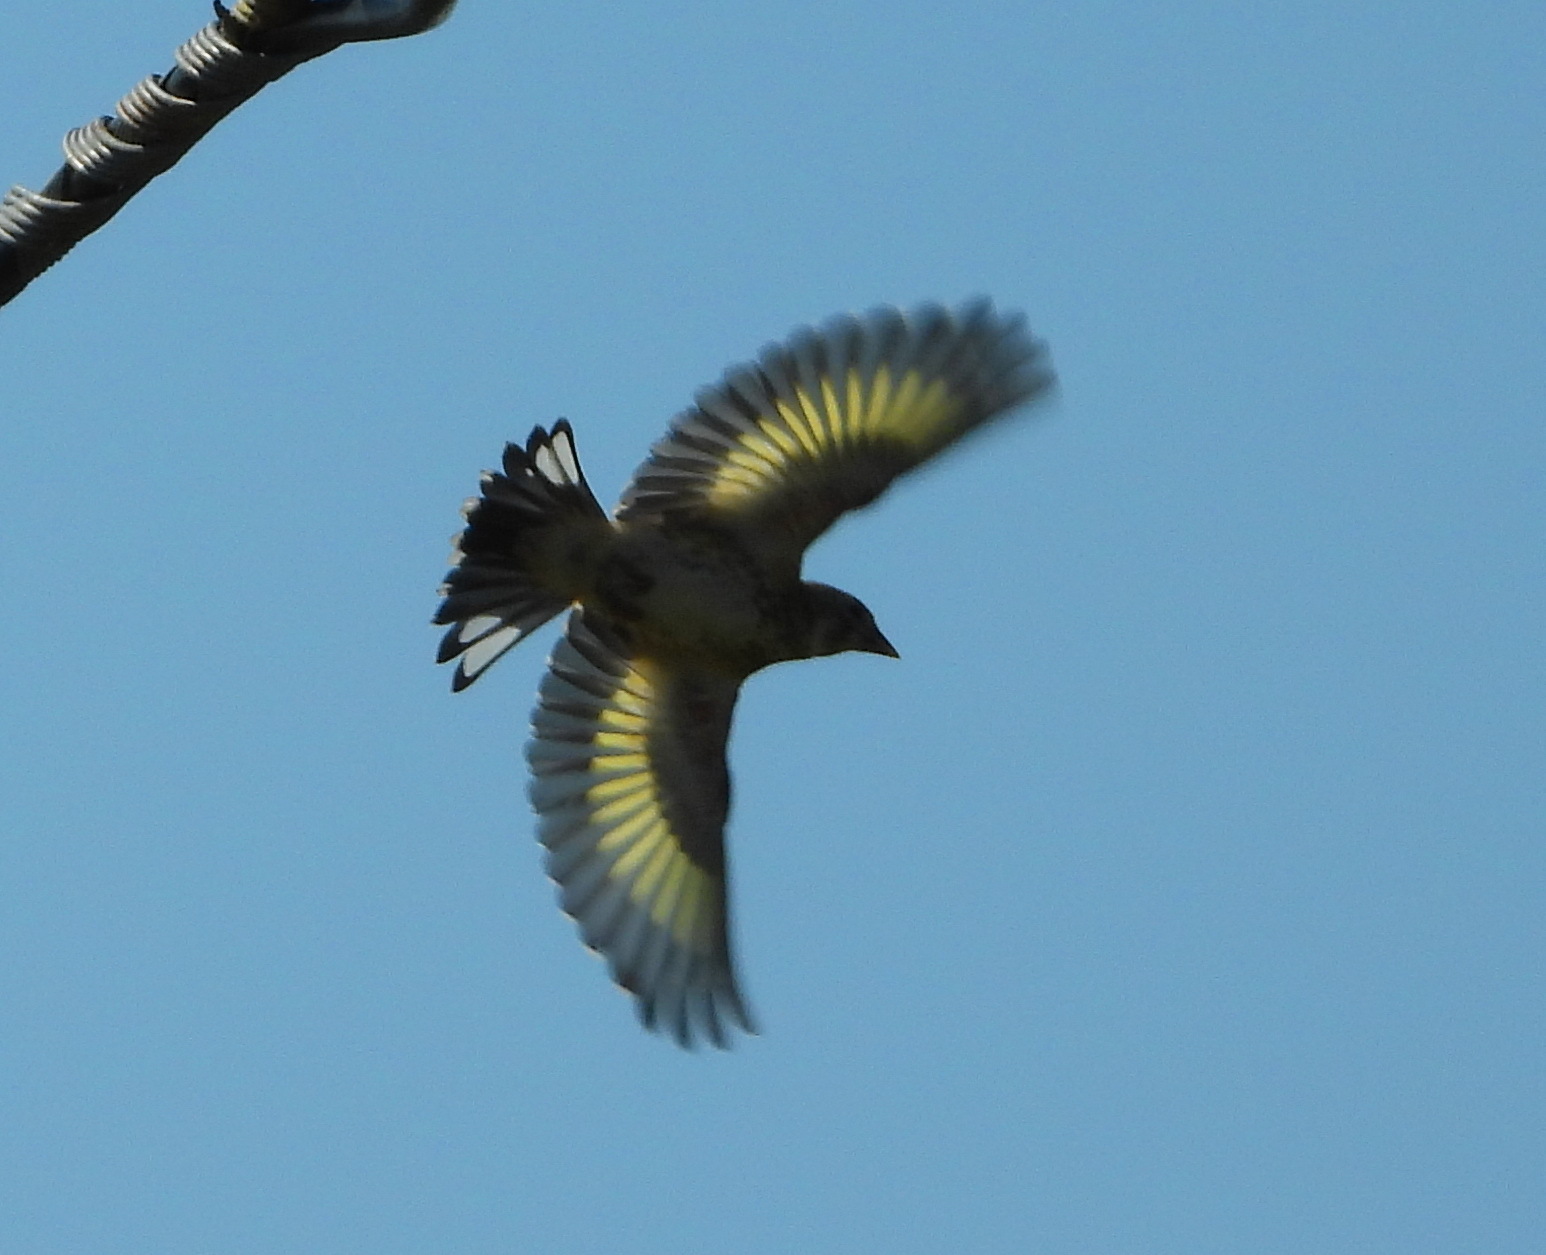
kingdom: Animalia
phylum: Chordata
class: Aves
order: Passeriformes
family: Fringillidae
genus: Carduelis
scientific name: Carduelis carduelis
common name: European goldfinch
